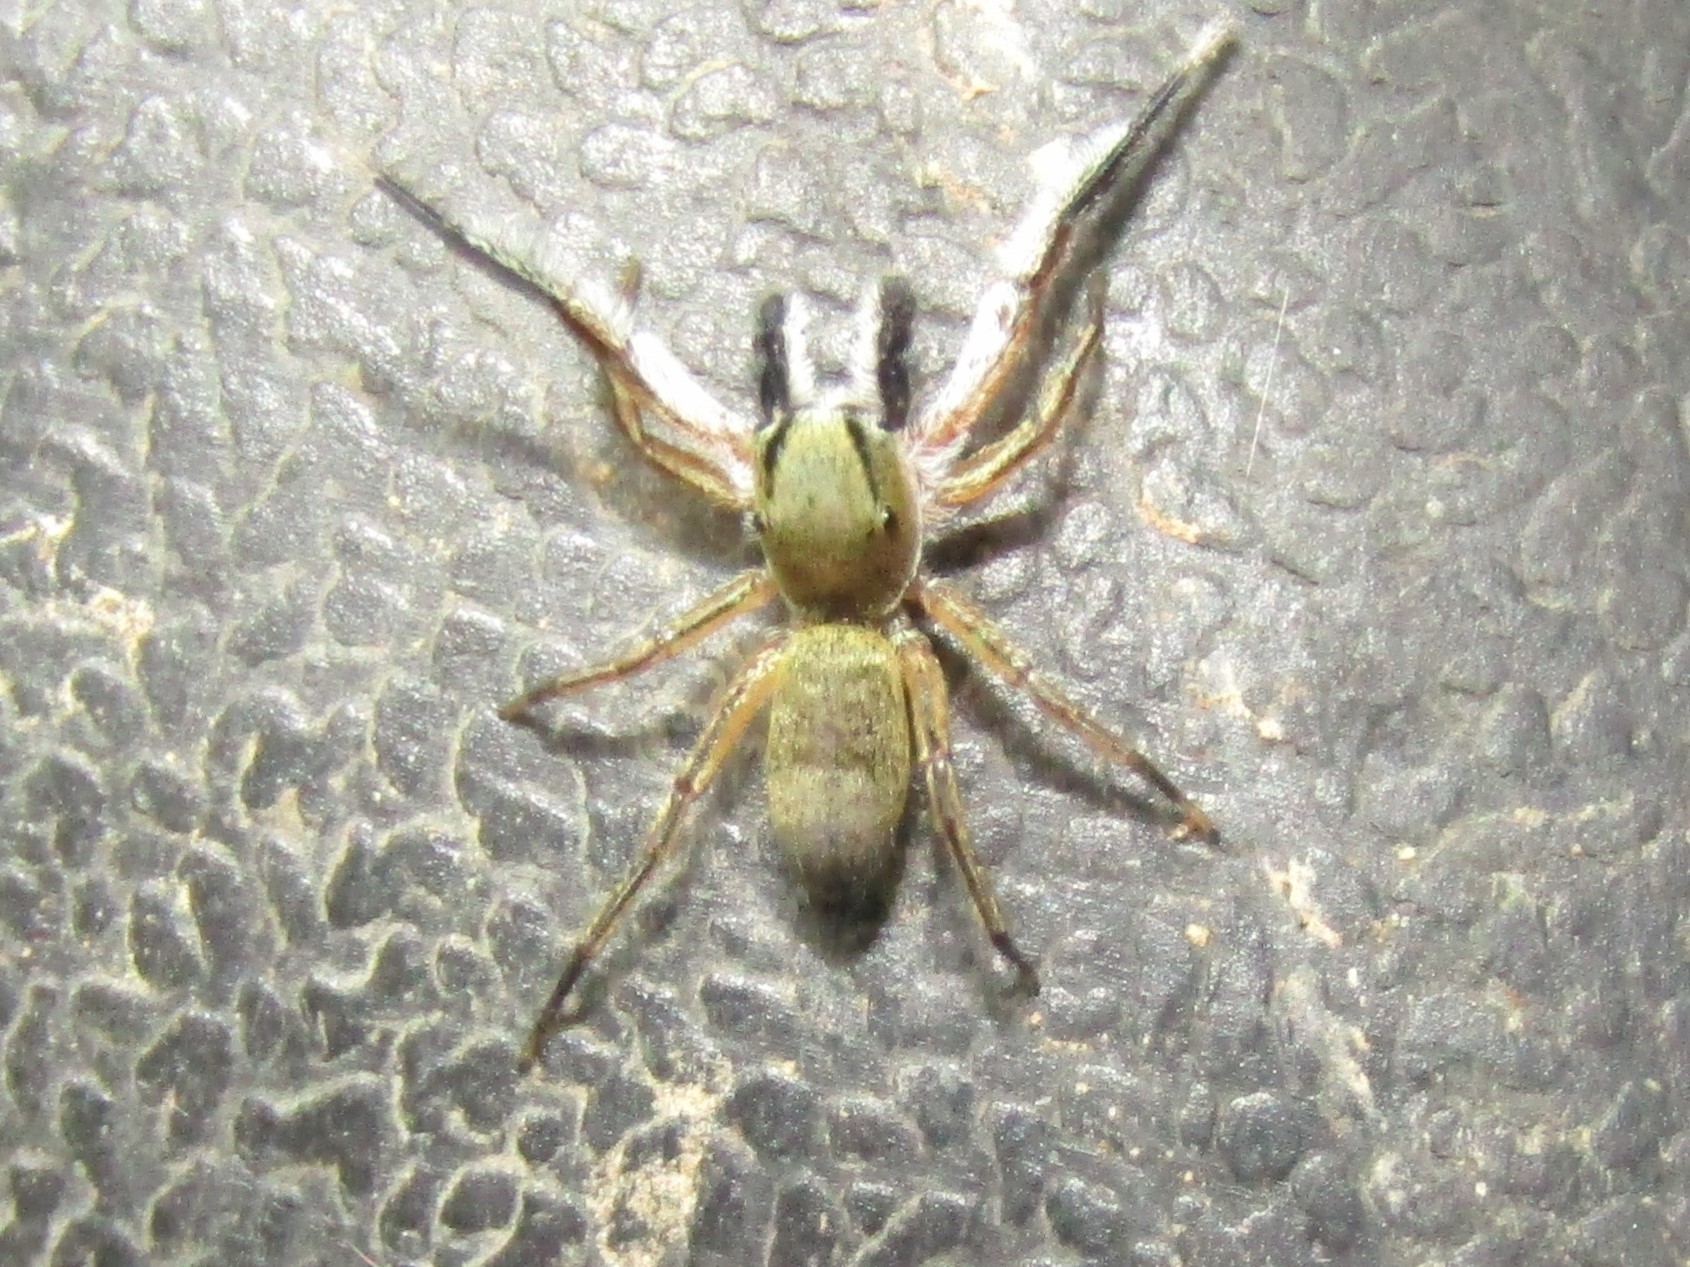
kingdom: Animalia
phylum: Arthropoda
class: Arachnida
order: Araneae
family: Salticidae
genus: Tutelina
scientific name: Tutelina elegans
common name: Thin-spined jumping spider
